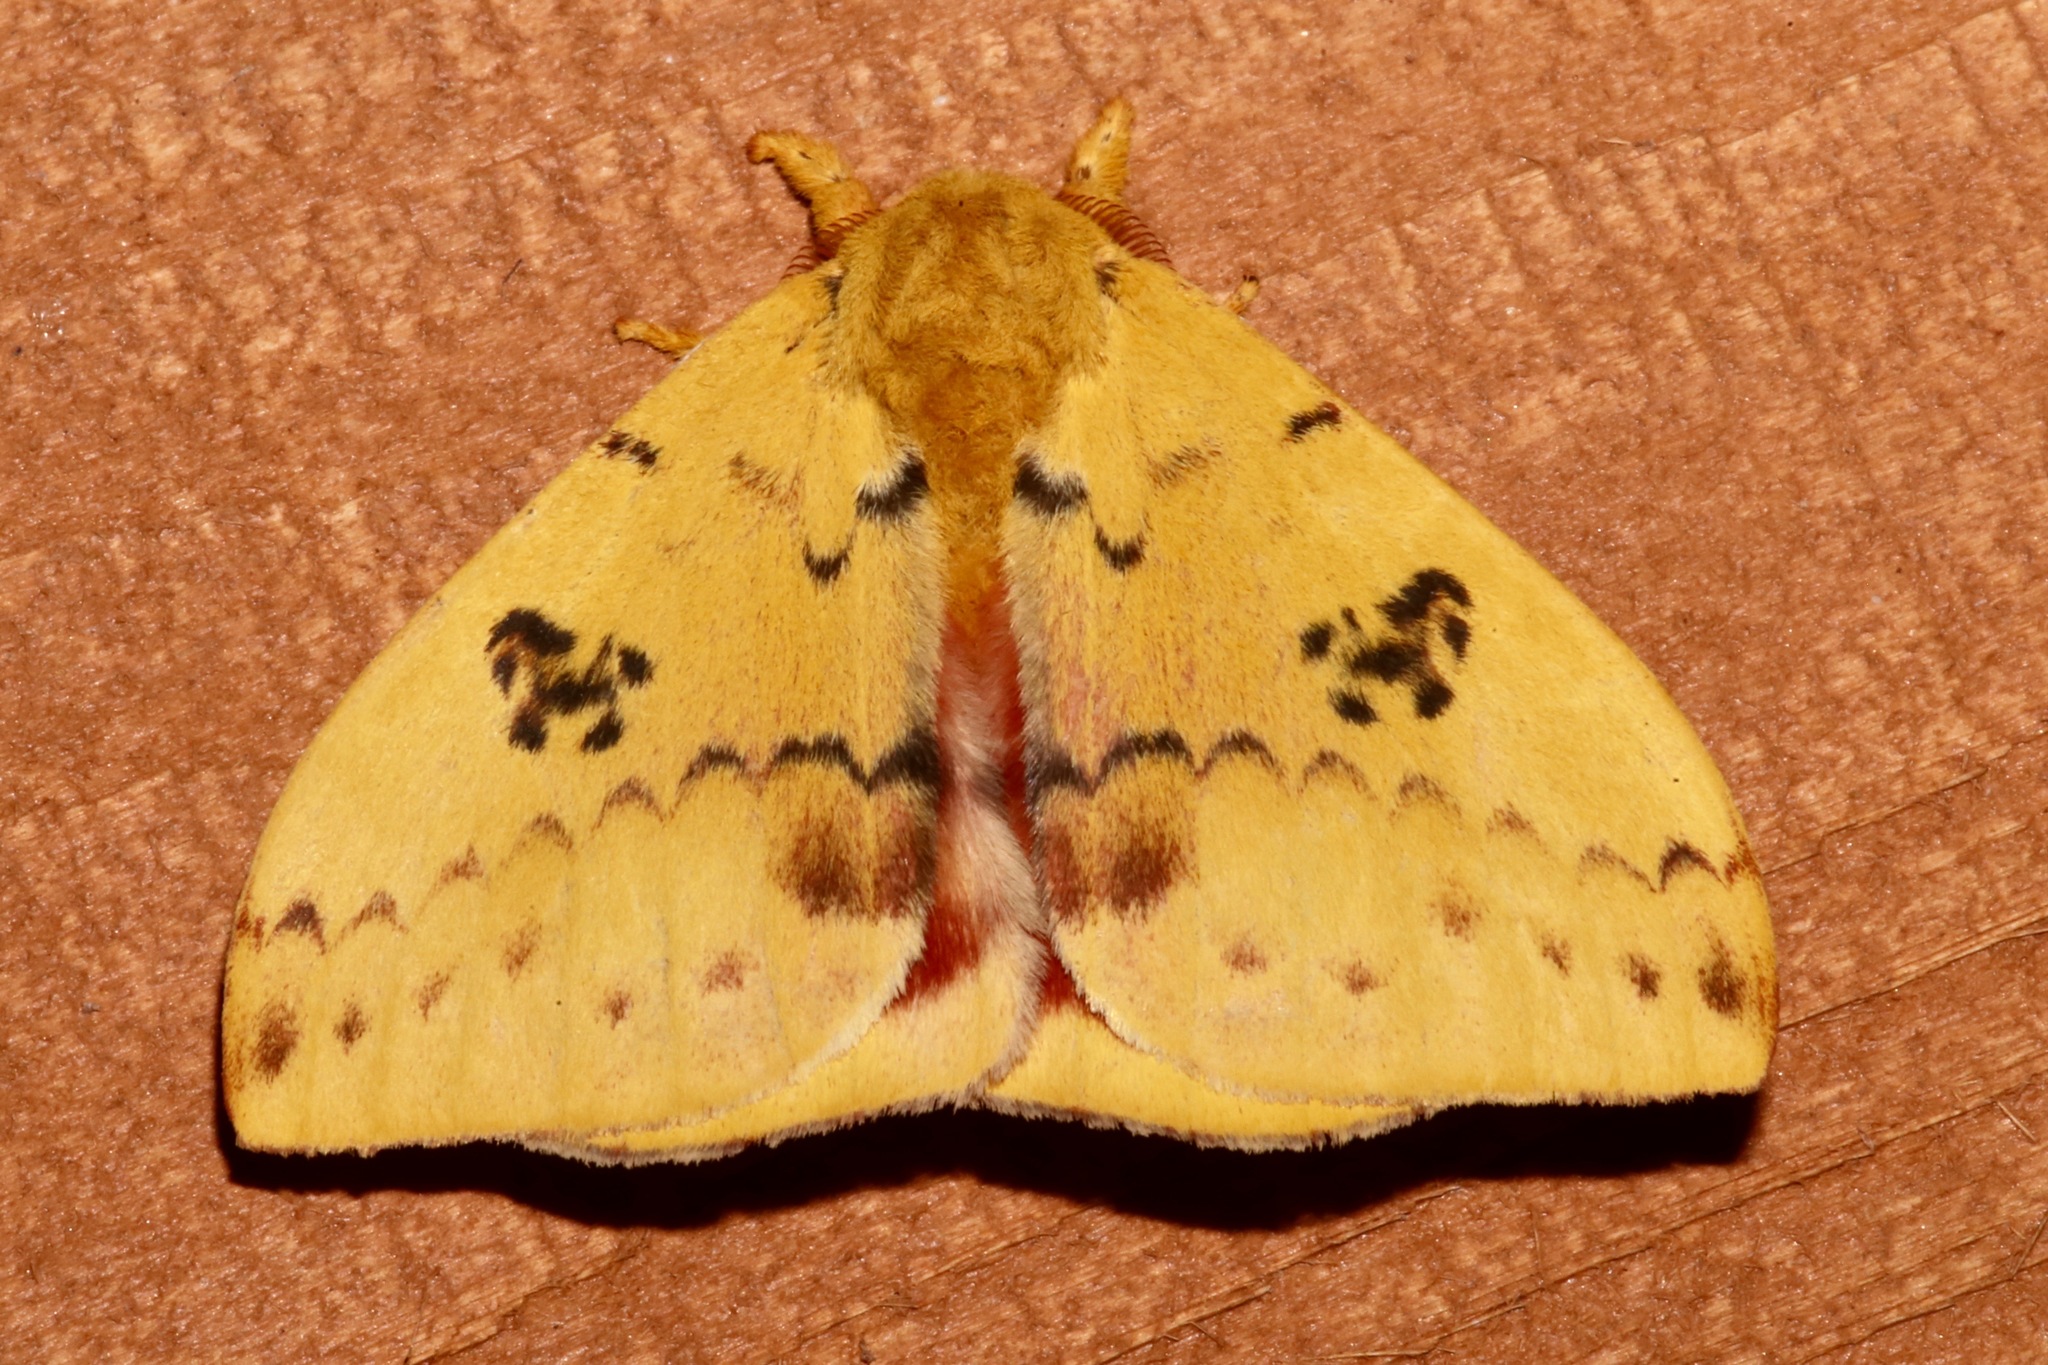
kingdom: Animalia
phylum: Arthropoda
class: Insecta
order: Lepidoptera
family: Saturniidae
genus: Automeris
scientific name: Automeris io
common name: Io moth
